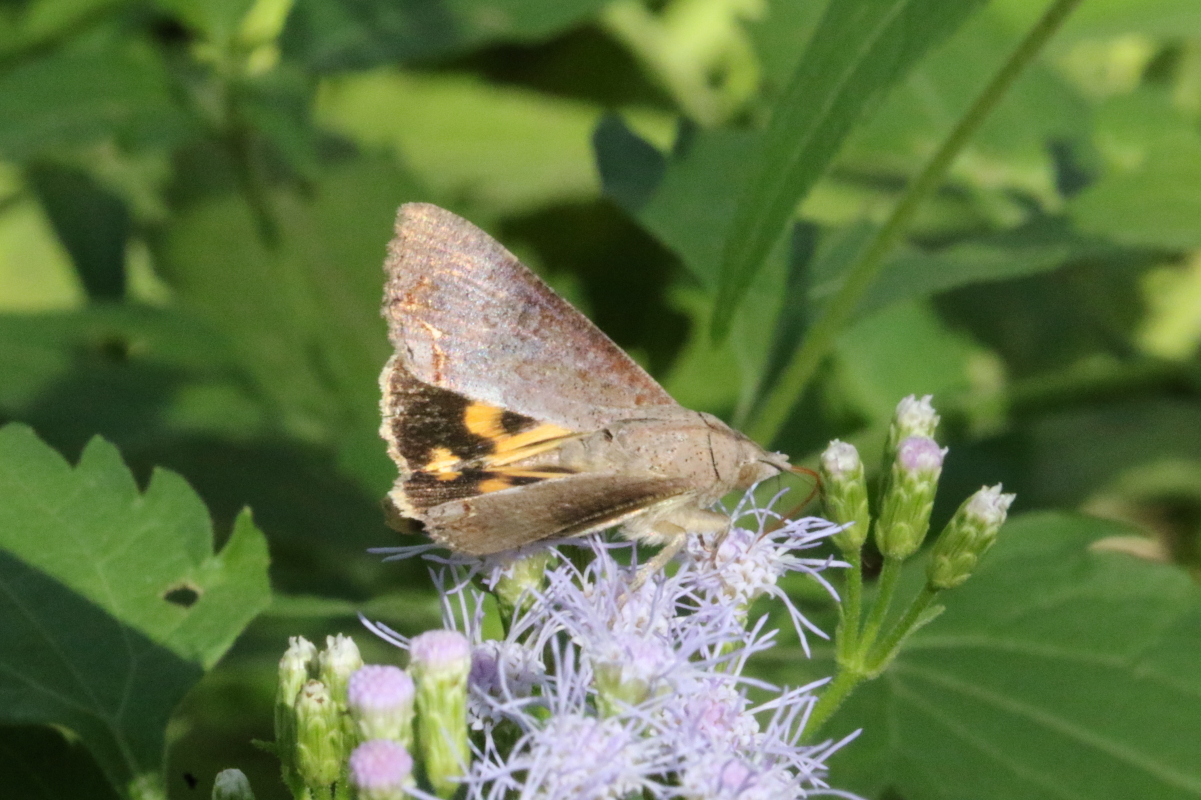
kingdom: Animalia
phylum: Arthropoda
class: Insecta
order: Lepidoptera
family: Erebidae
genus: Hypocala
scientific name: Hypocala andremona
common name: Hypocala moth
